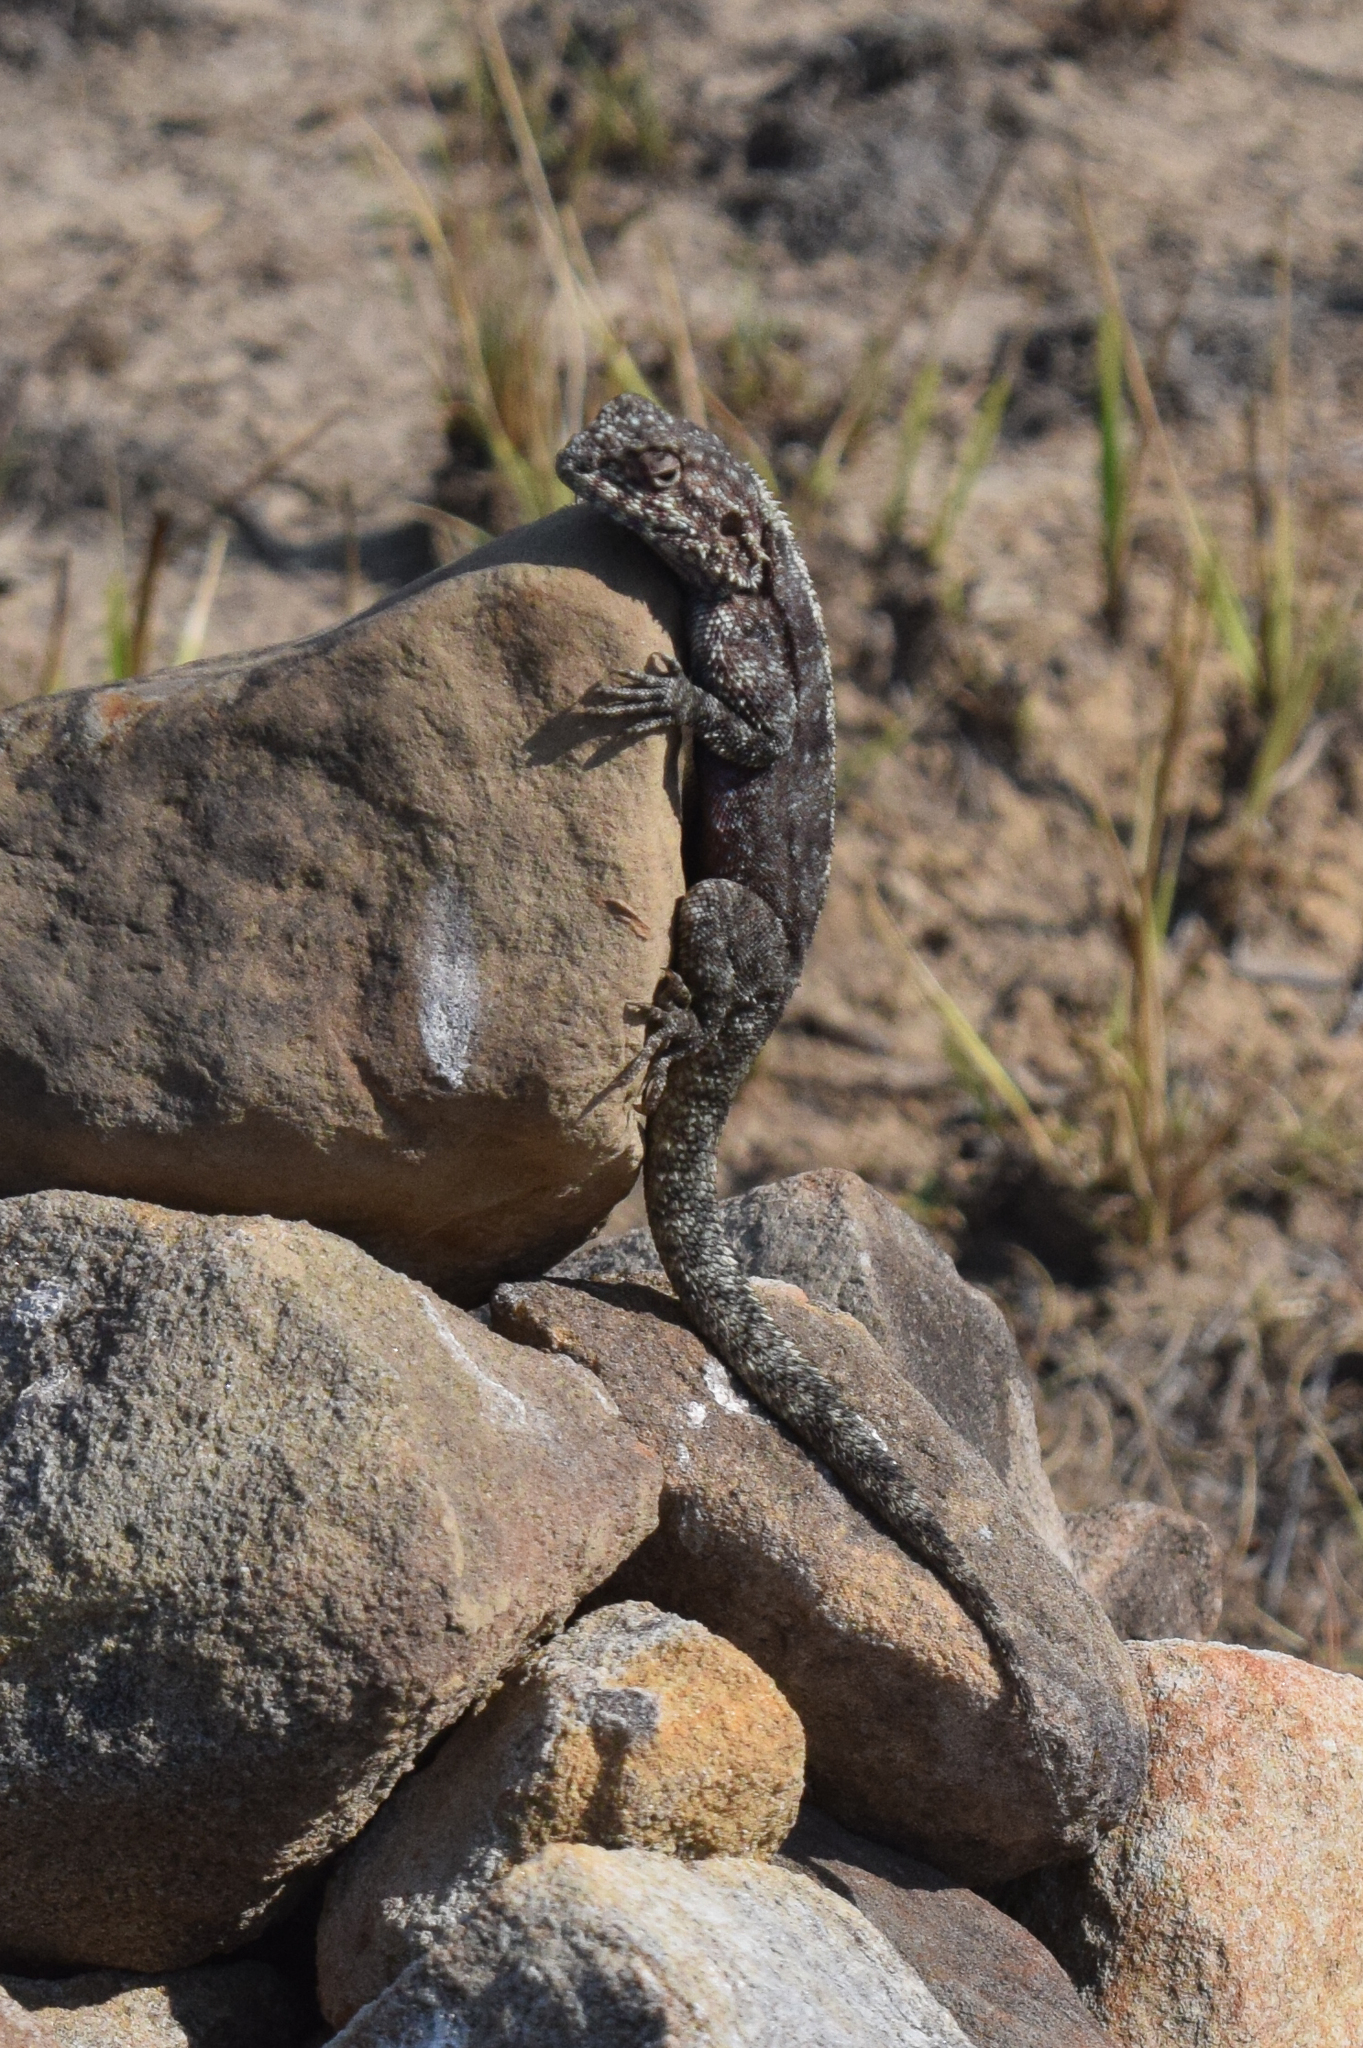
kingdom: Animalia
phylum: Chordata
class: Squamata
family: Agamidae
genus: Agama
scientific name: Agama atra
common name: Southern african rock agama
